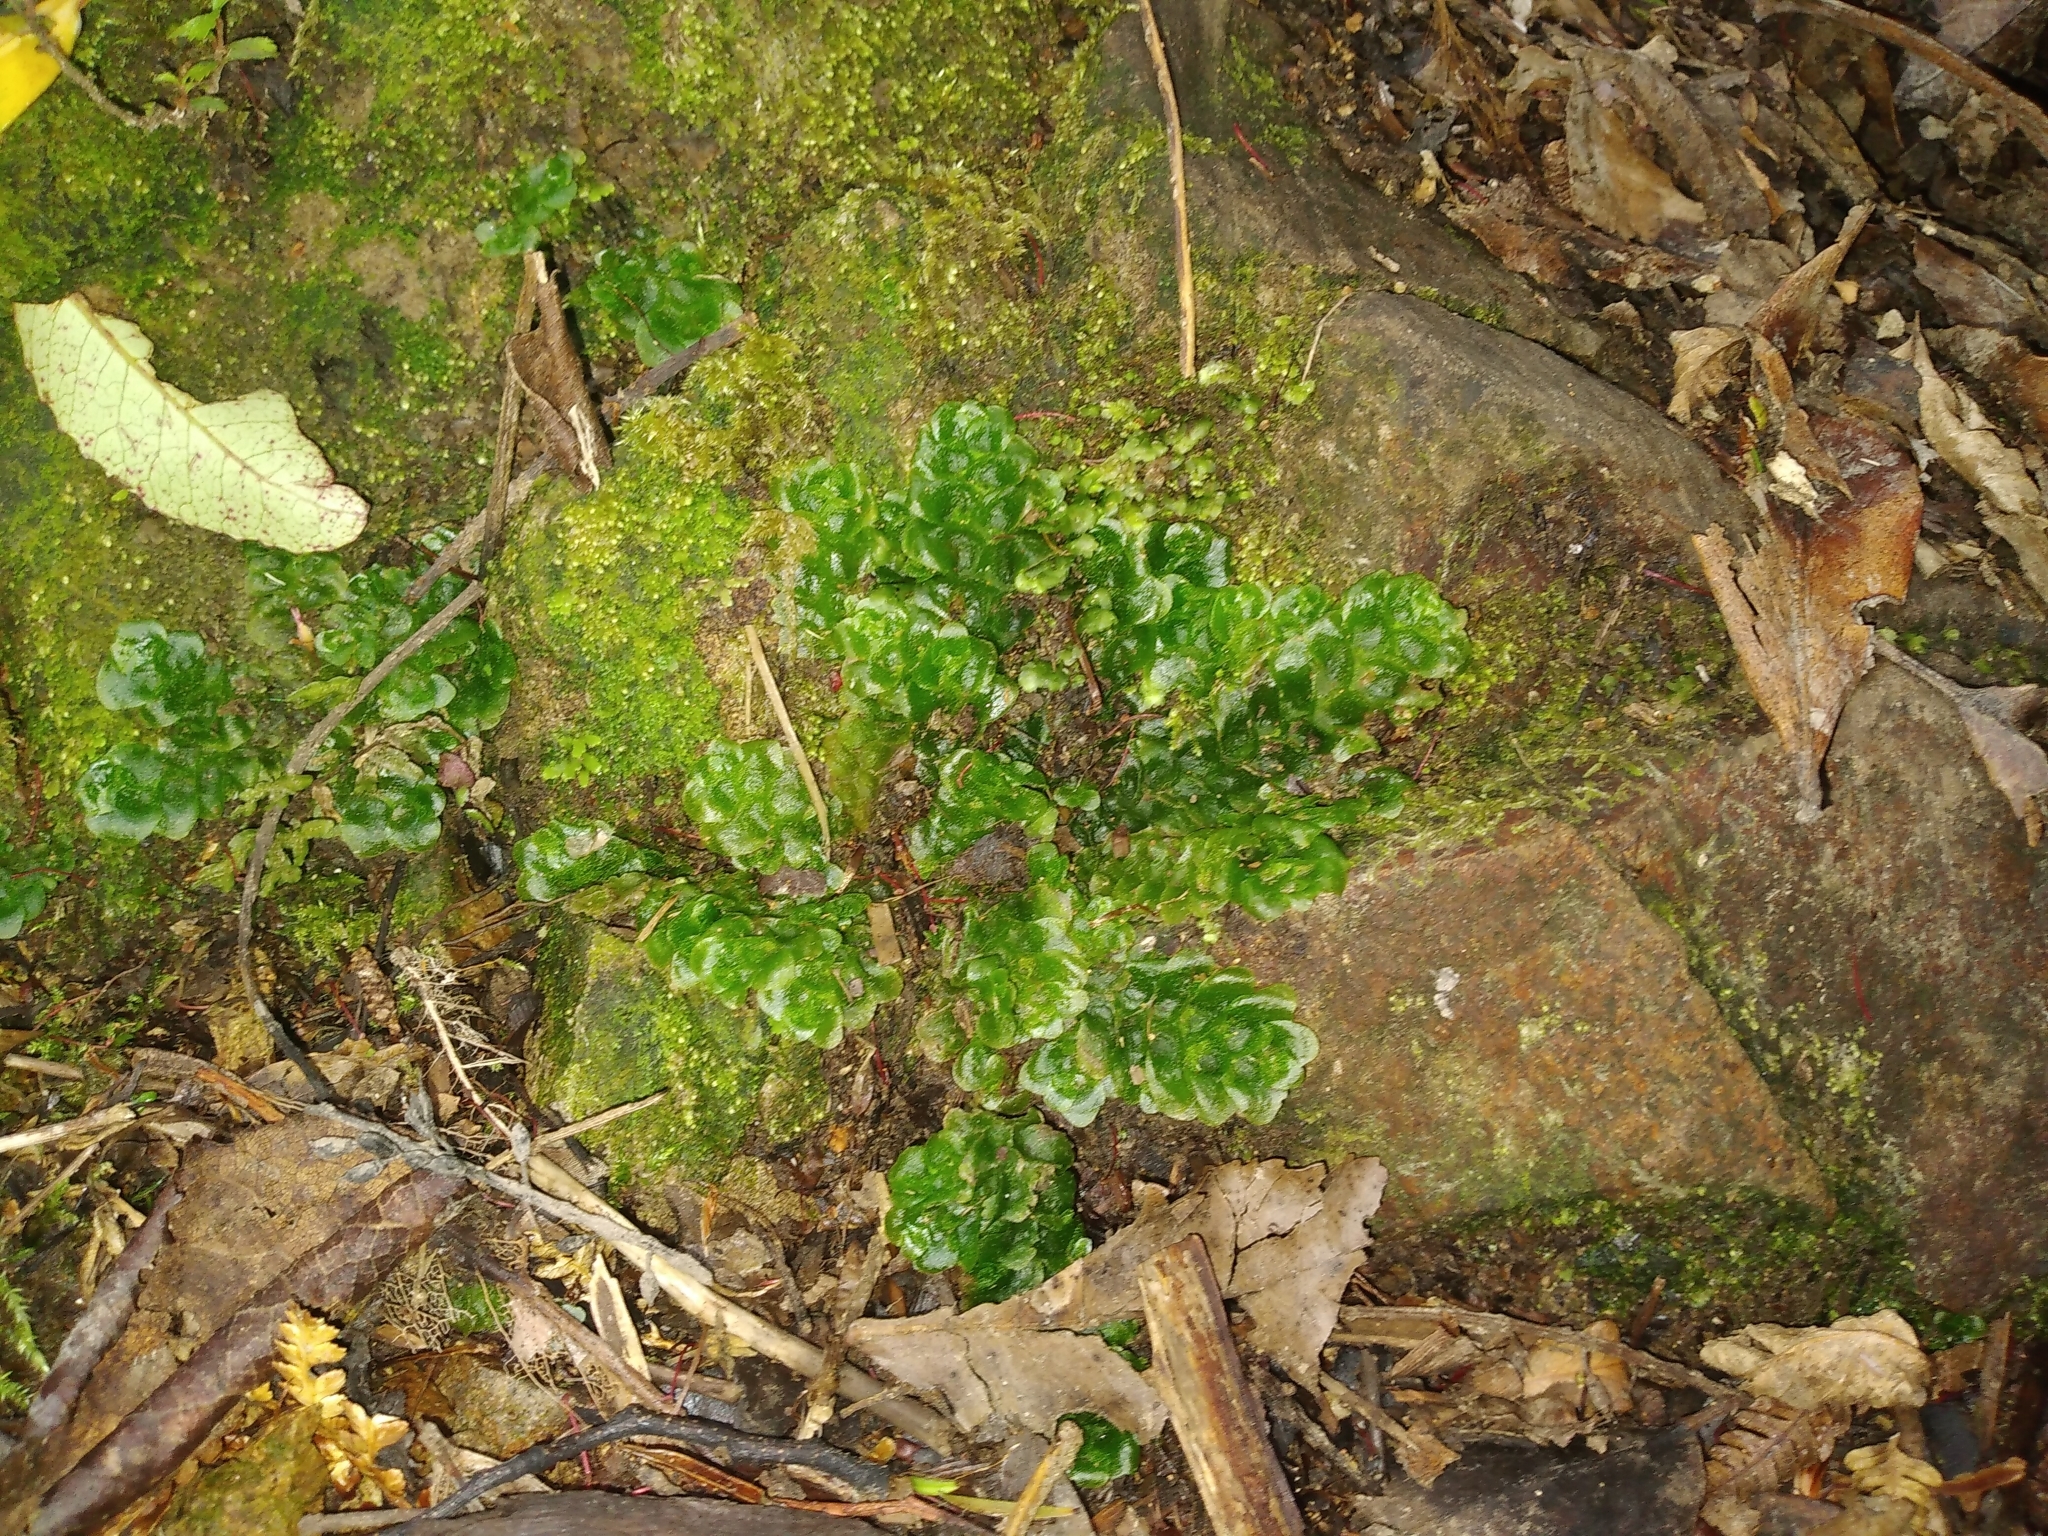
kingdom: Plantae
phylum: Marchantiophyta
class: Haplomitriopsida
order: Treubiales
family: Treubiaceae
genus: Treubia
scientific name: Treubia lacunosa
